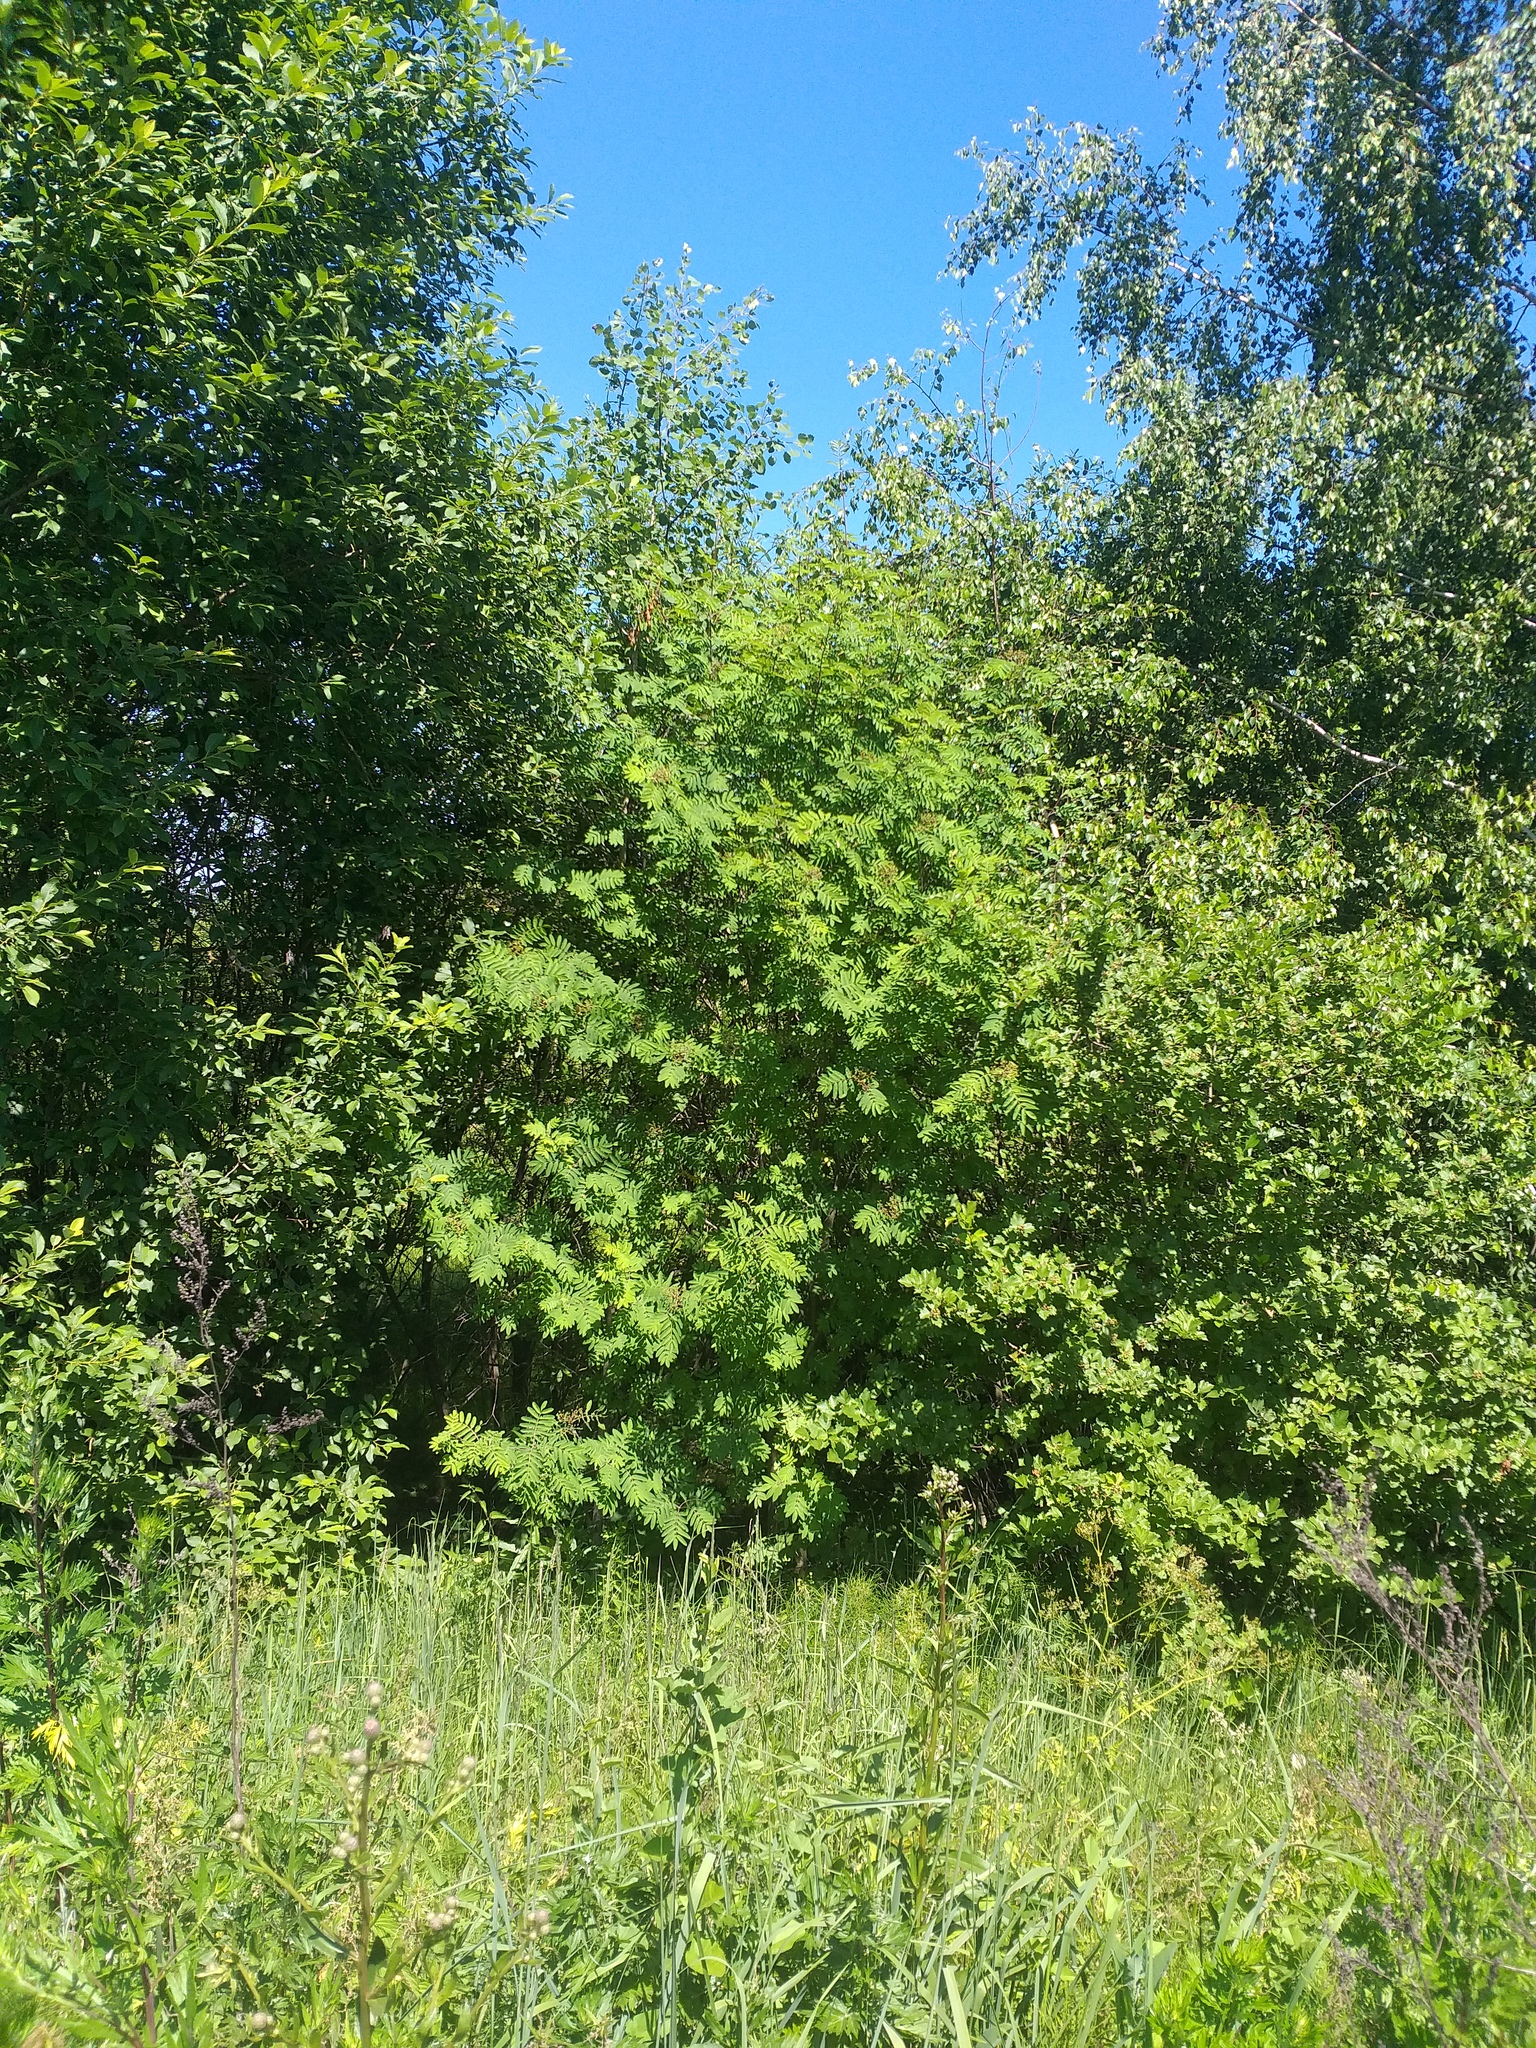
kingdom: Plantae
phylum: Tracheophyta
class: Magnoliopsida
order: Rosales
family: Rosaceae
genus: Sorbus
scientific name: Sorbus aucuparia
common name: Rowan
